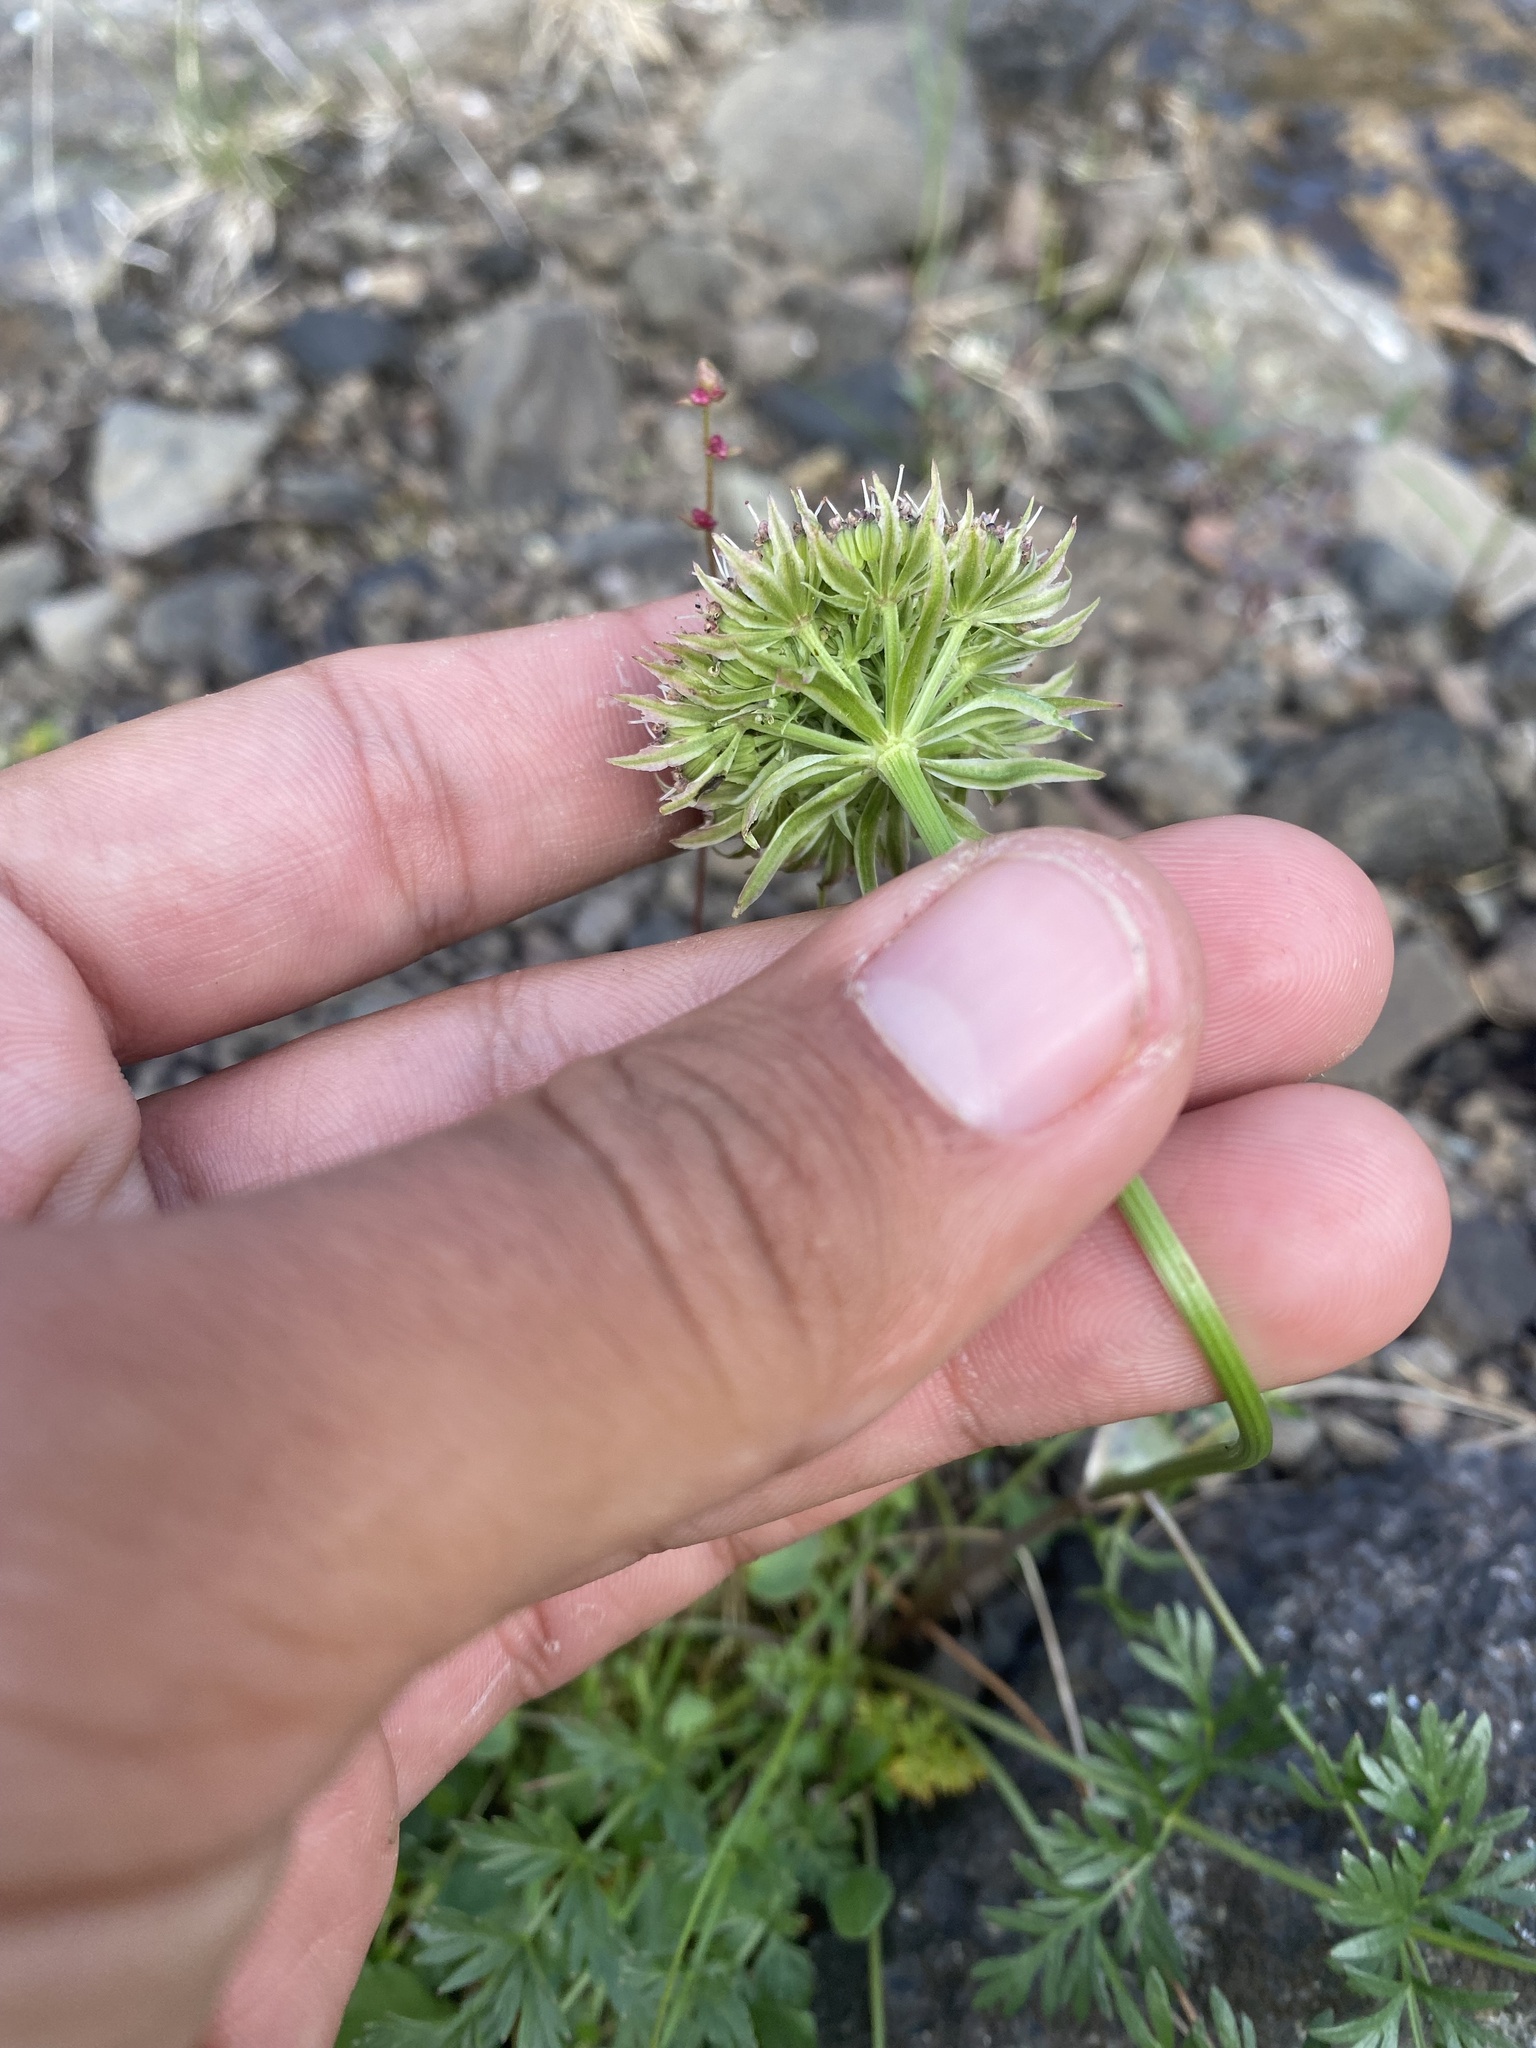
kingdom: Plantae
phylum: Tracheophyta
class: Magnoliopsida
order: Apiales
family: Apiaceae
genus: Pachypleurum
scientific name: Pachypleurum mutellinoides
